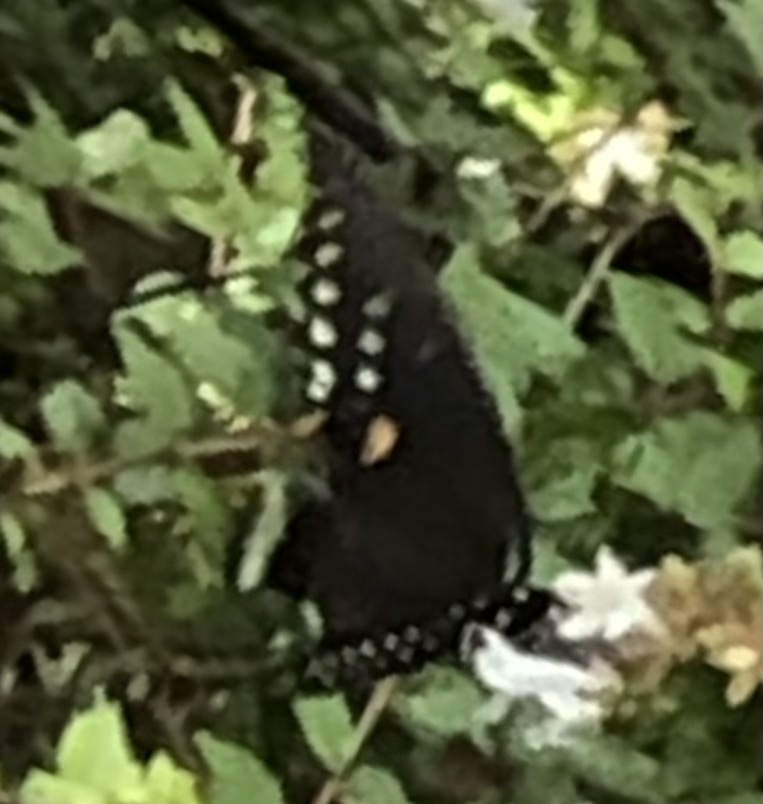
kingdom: Animalia
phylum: Arthropoda
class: Insecta
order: Lepidoptera
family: Papilionidae
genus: Papilio
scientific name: Papilio troilus
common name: Spicebush swallowtail
